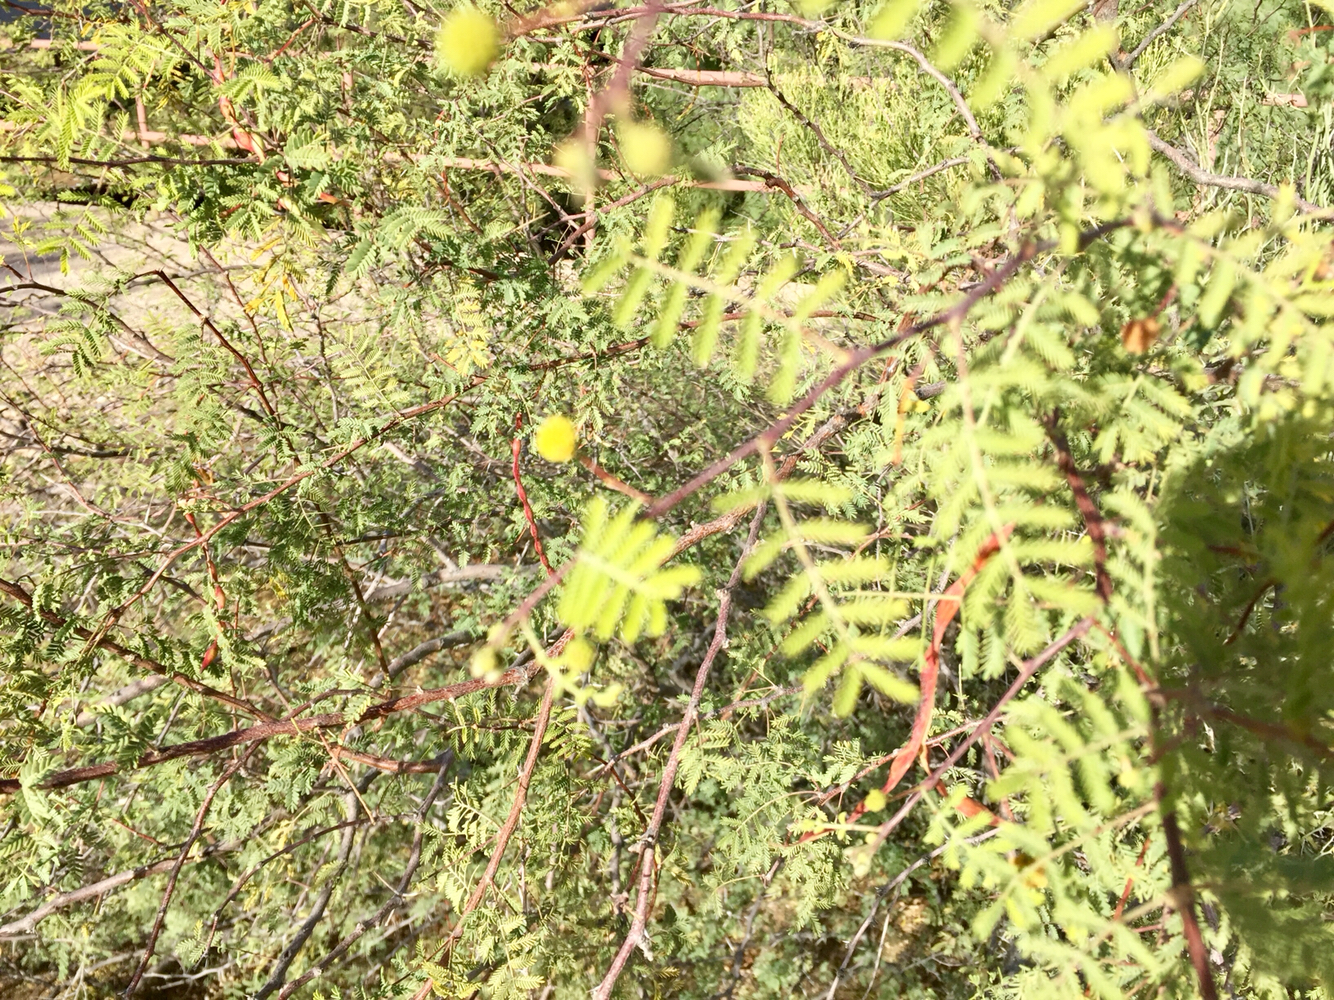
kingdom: Plantae
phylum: Tracheophyta
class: Magnoliopsida
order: Fabales
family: Fabaceae
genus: Vachellia
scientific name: Vachellia constricta
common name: Mescat acacia
